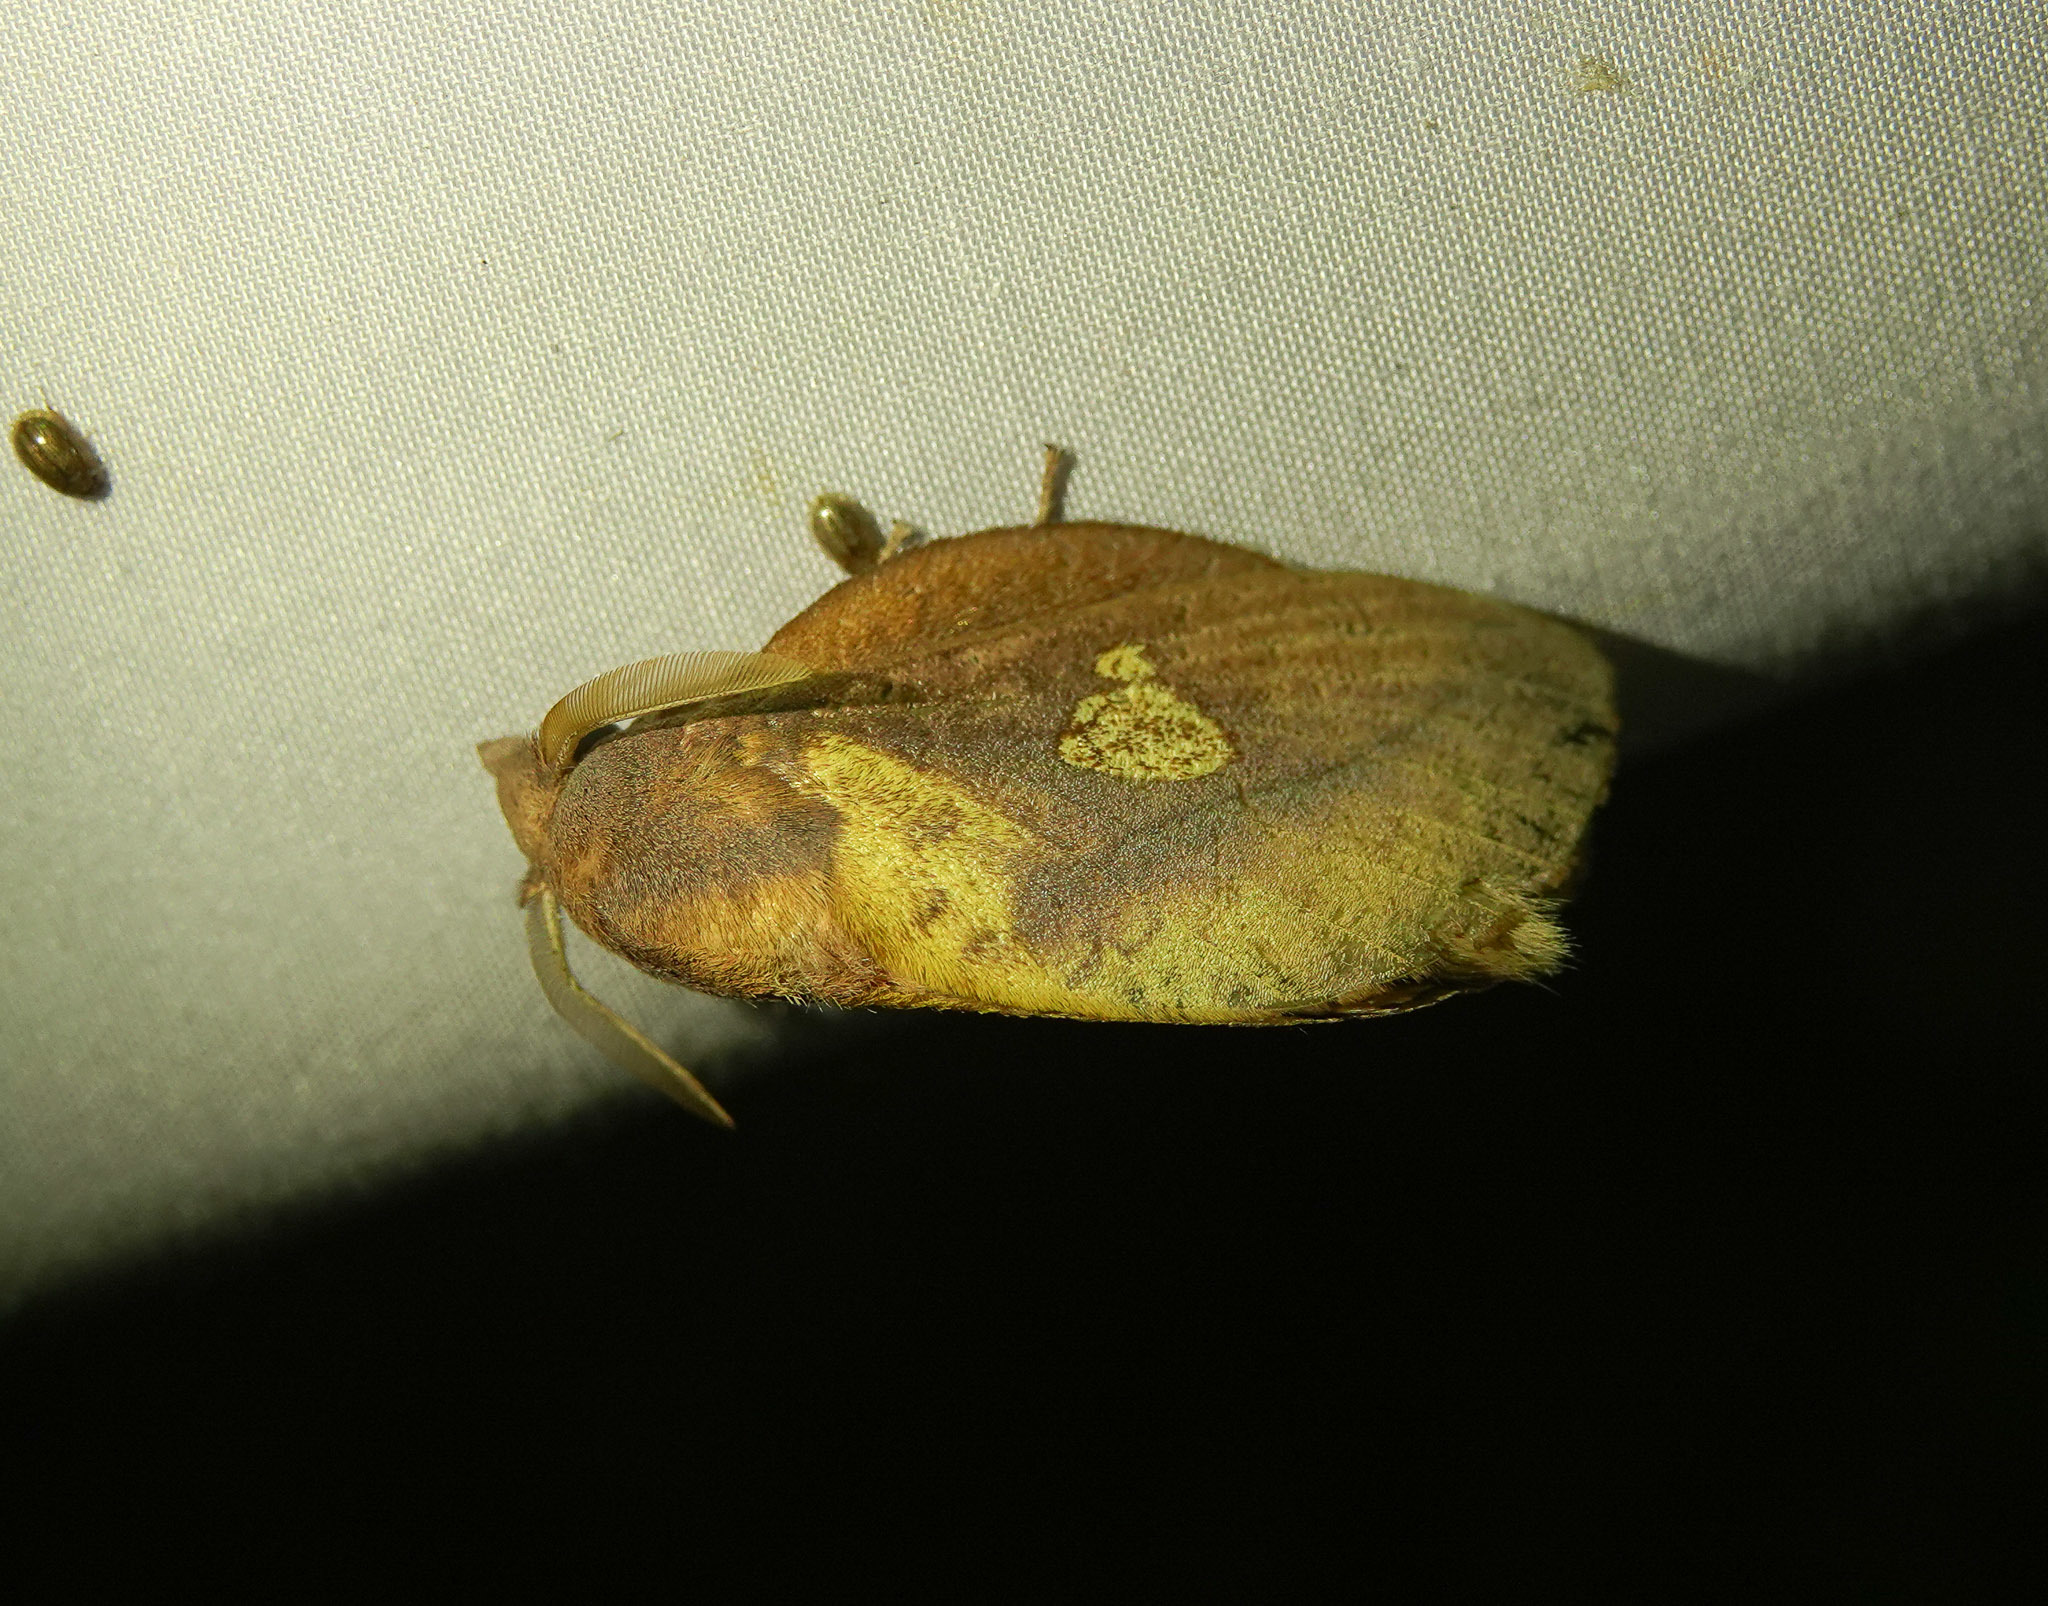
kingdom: Animalia
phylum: Arthropoda
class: Insecta
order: Lepidoptera
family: Lasiocampidae
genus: Euthrix
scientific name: Euthrix laeta
